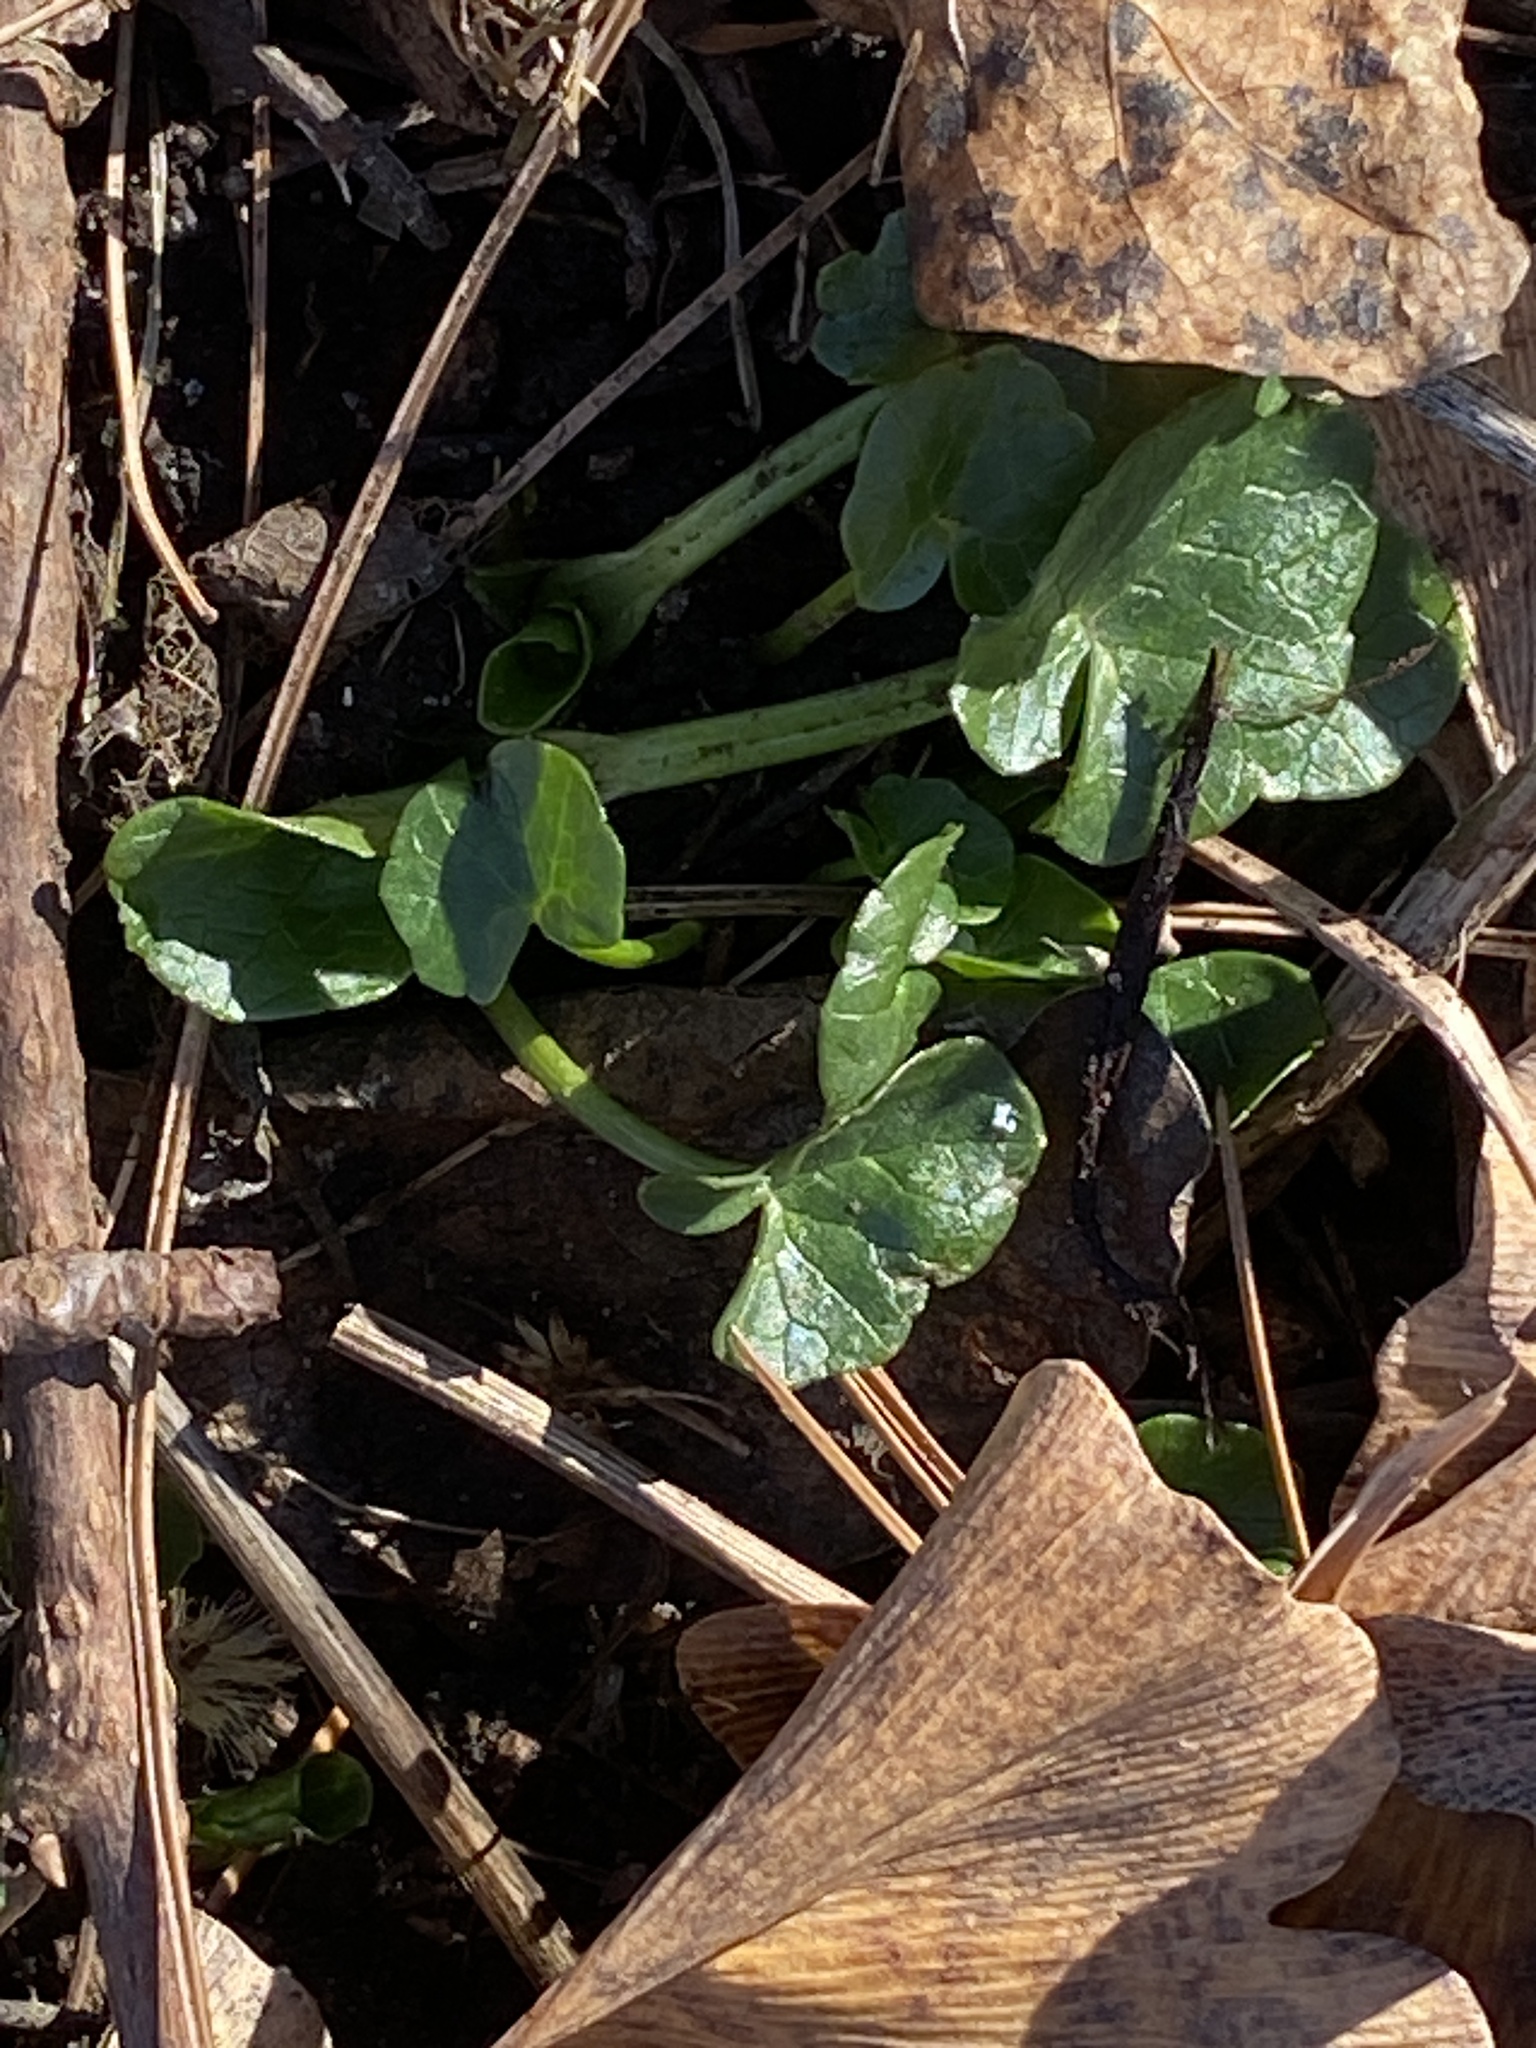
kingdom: Plantae
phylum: Tracheophyta
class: Magnoliopsida
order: Ranunculales
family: Ranunculaceae
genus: Ficaria
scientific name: Ficaria verna
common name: Lesser celandine
